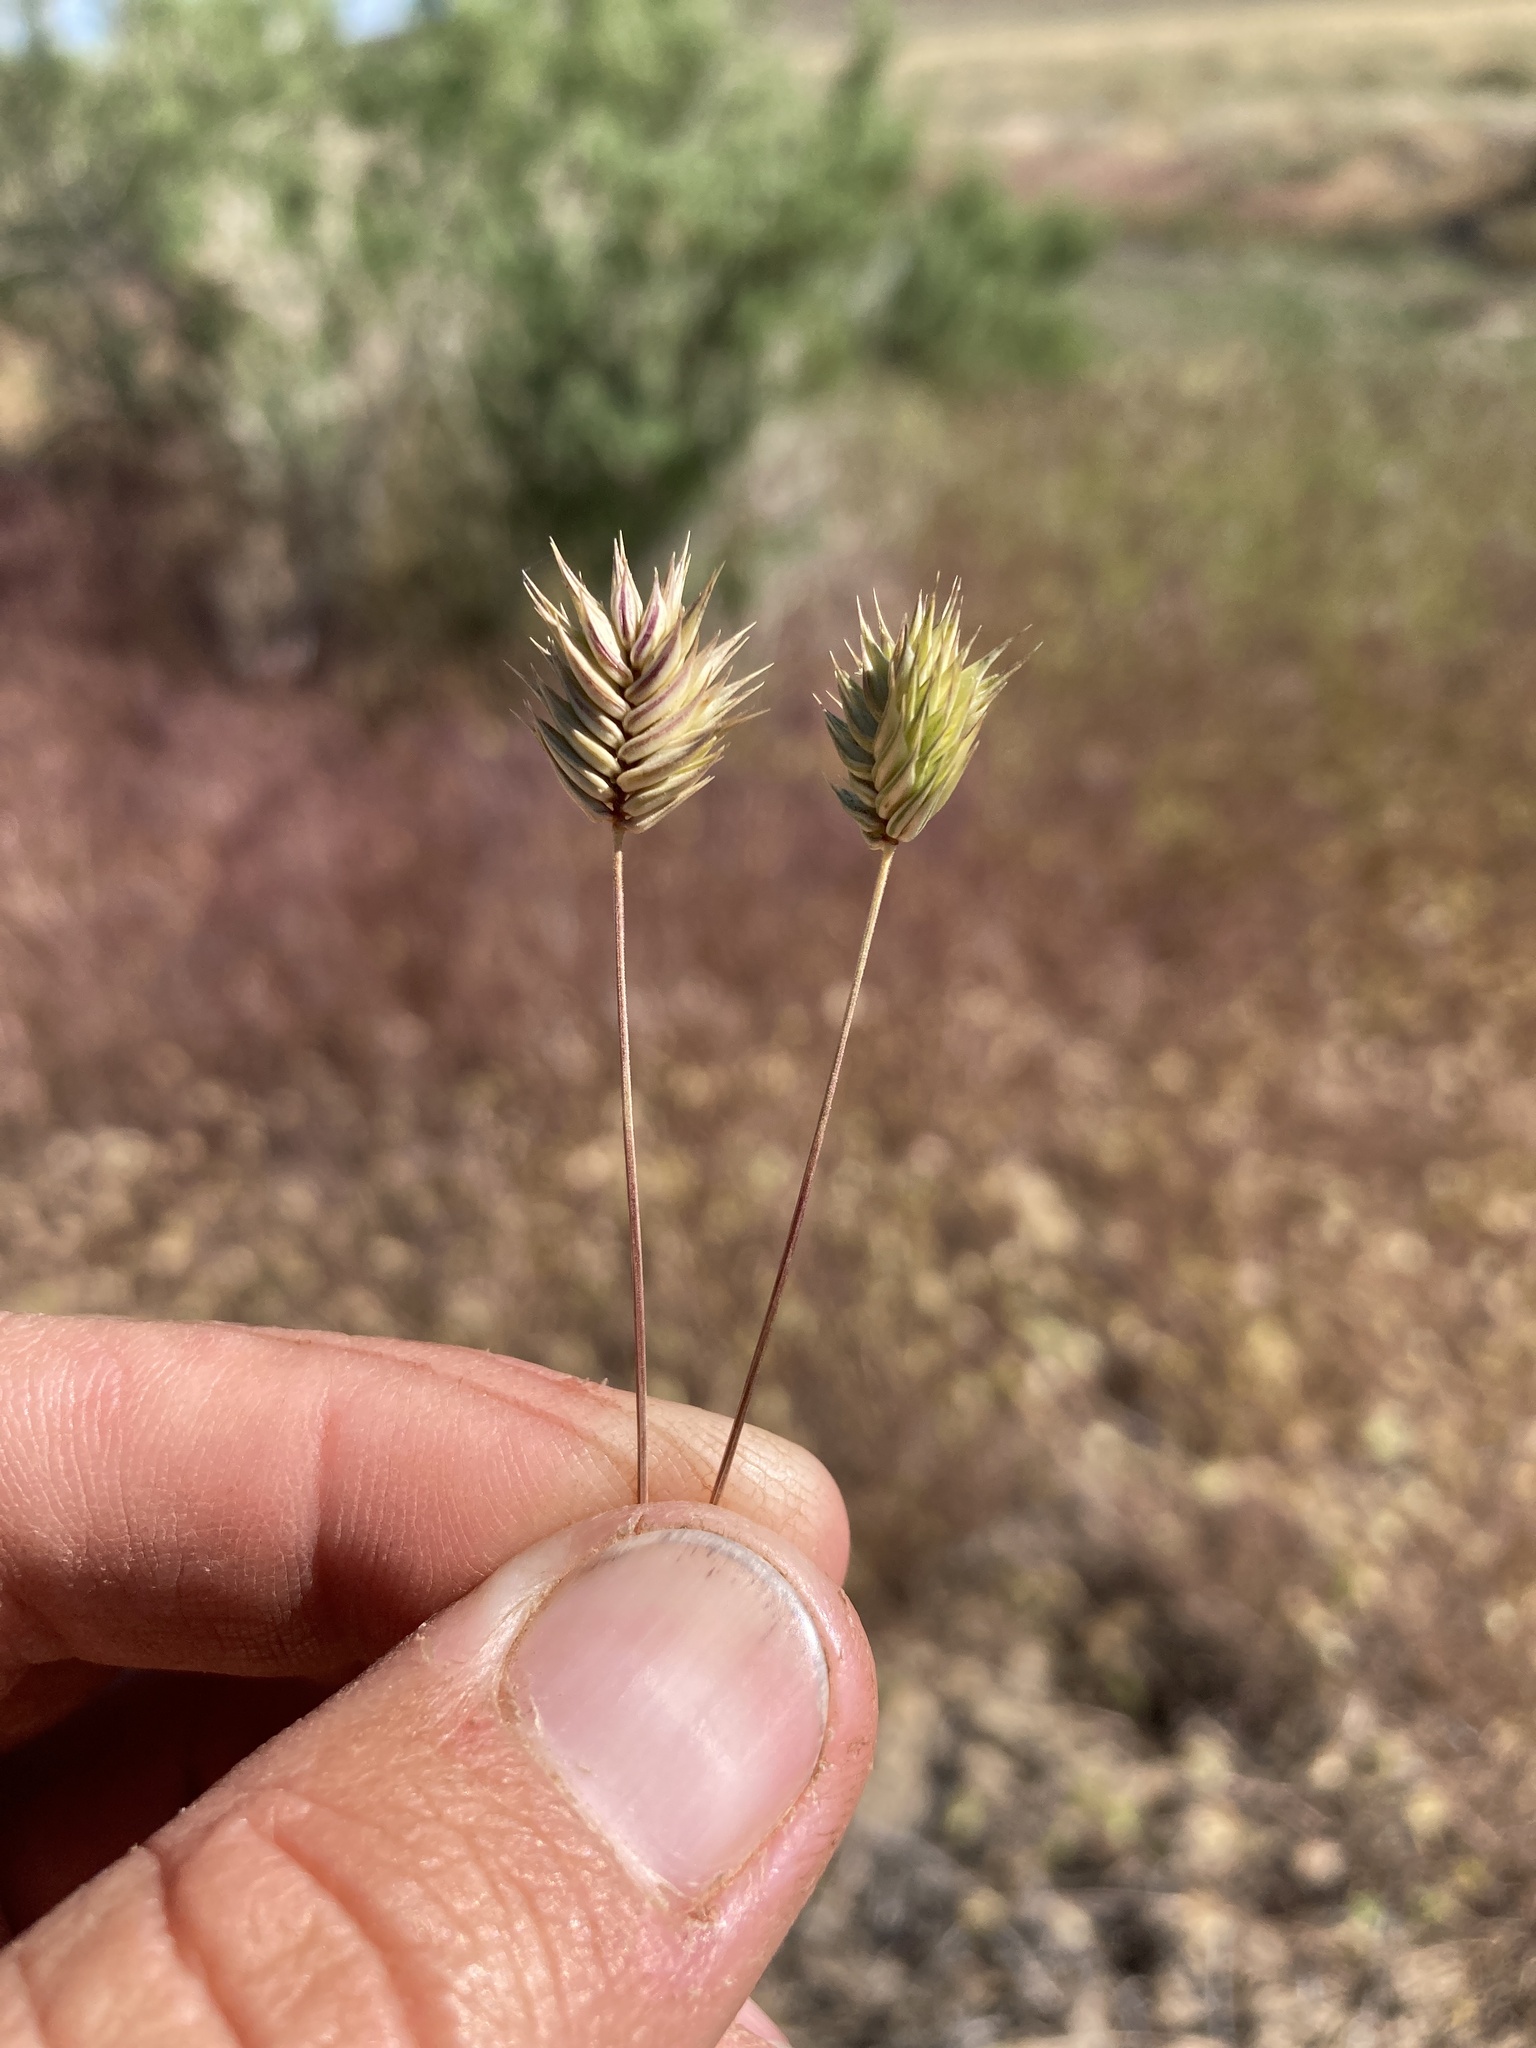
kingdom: Plantae
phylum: Tracheophyta
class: Liliopsida
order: Poales
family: Poaceae
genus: Eremopyrum
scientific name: Eremopyrum triticeum
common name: Annual wheatgrass
